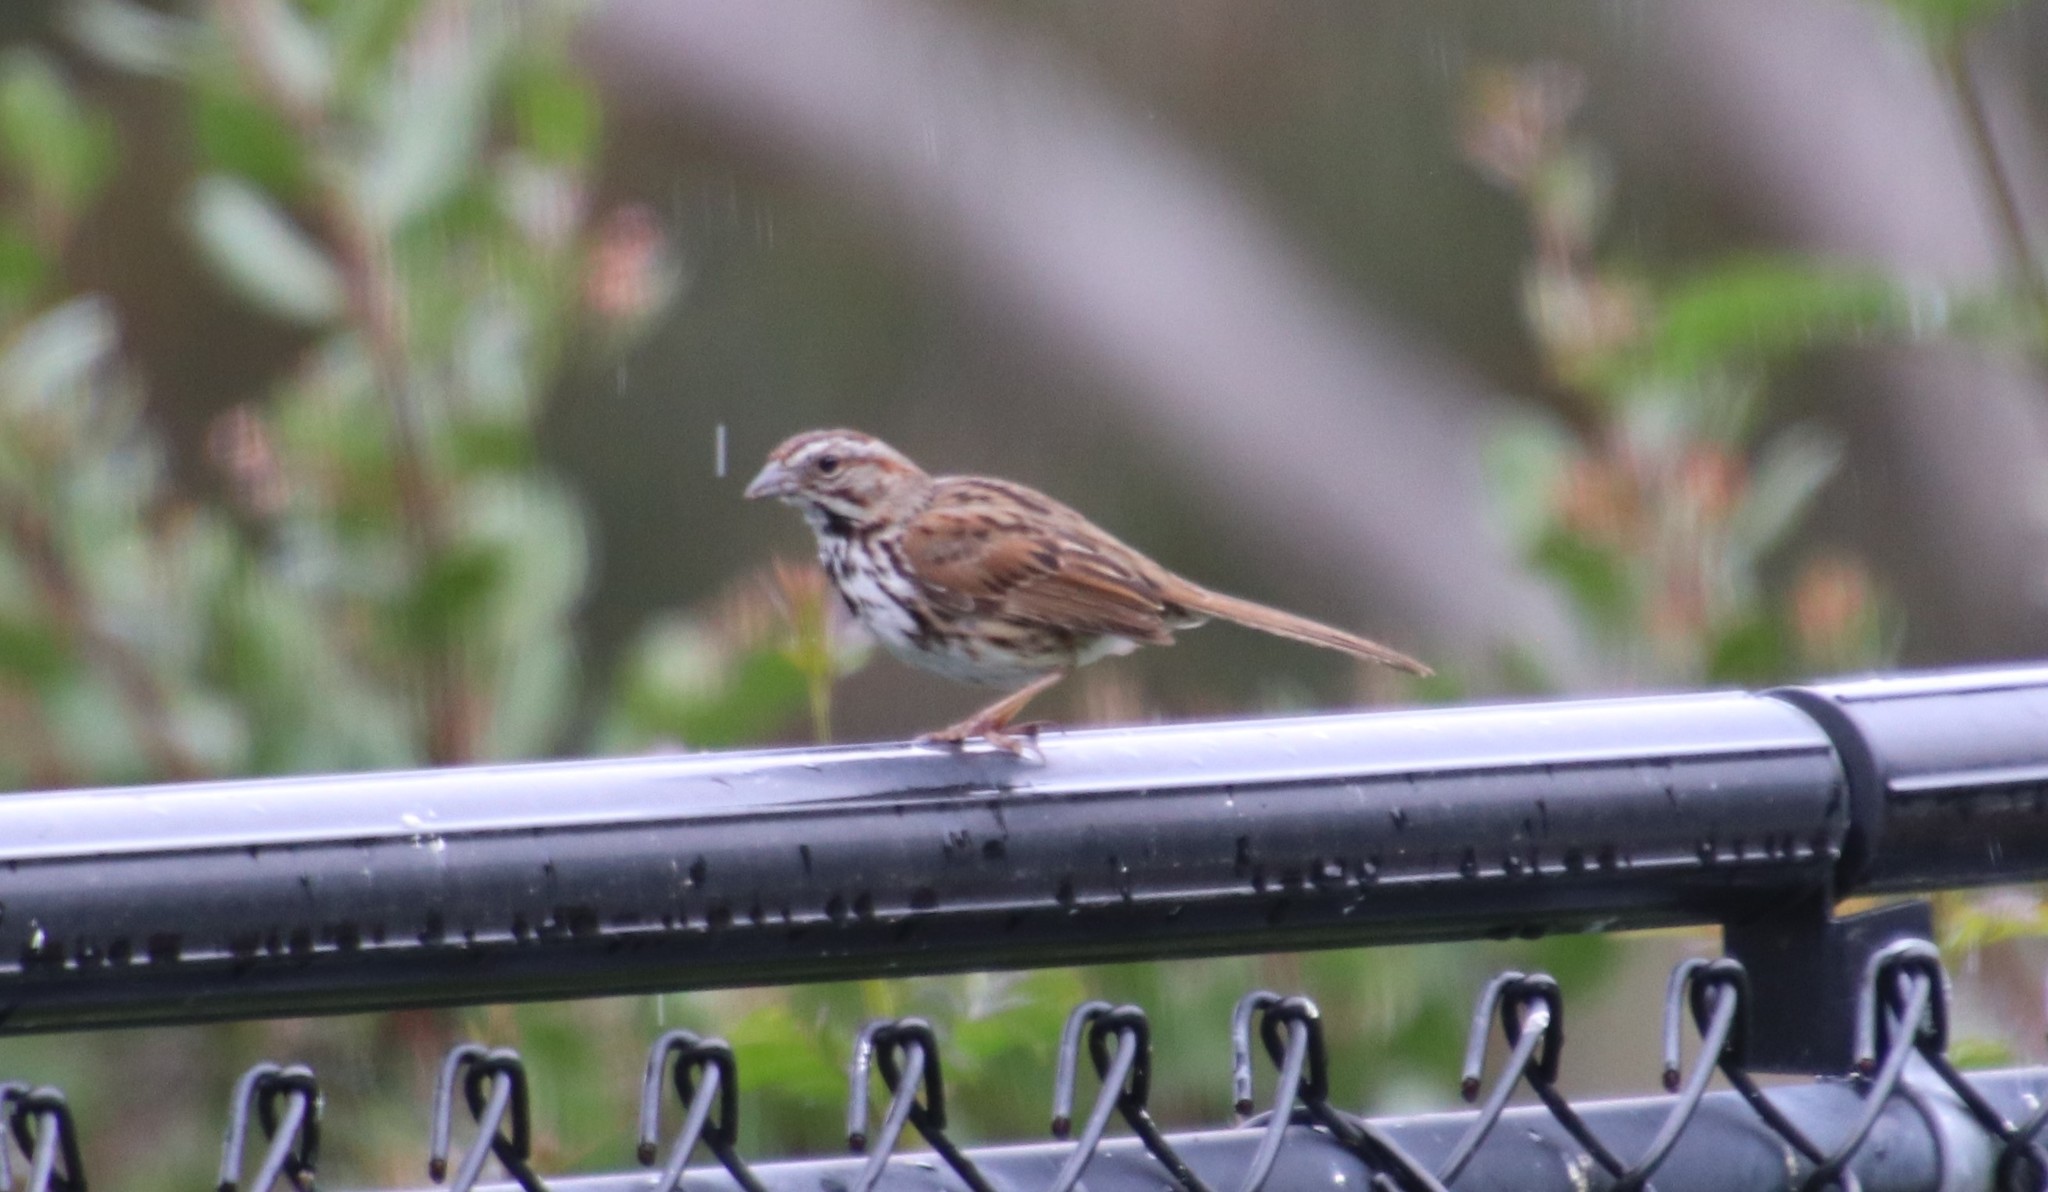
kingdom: Animalia
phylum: Chordata
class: Aves
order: Passeriformes
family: Passerellidae
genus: Melospiza
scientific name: Melospiza melodia
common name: Song sparrow
